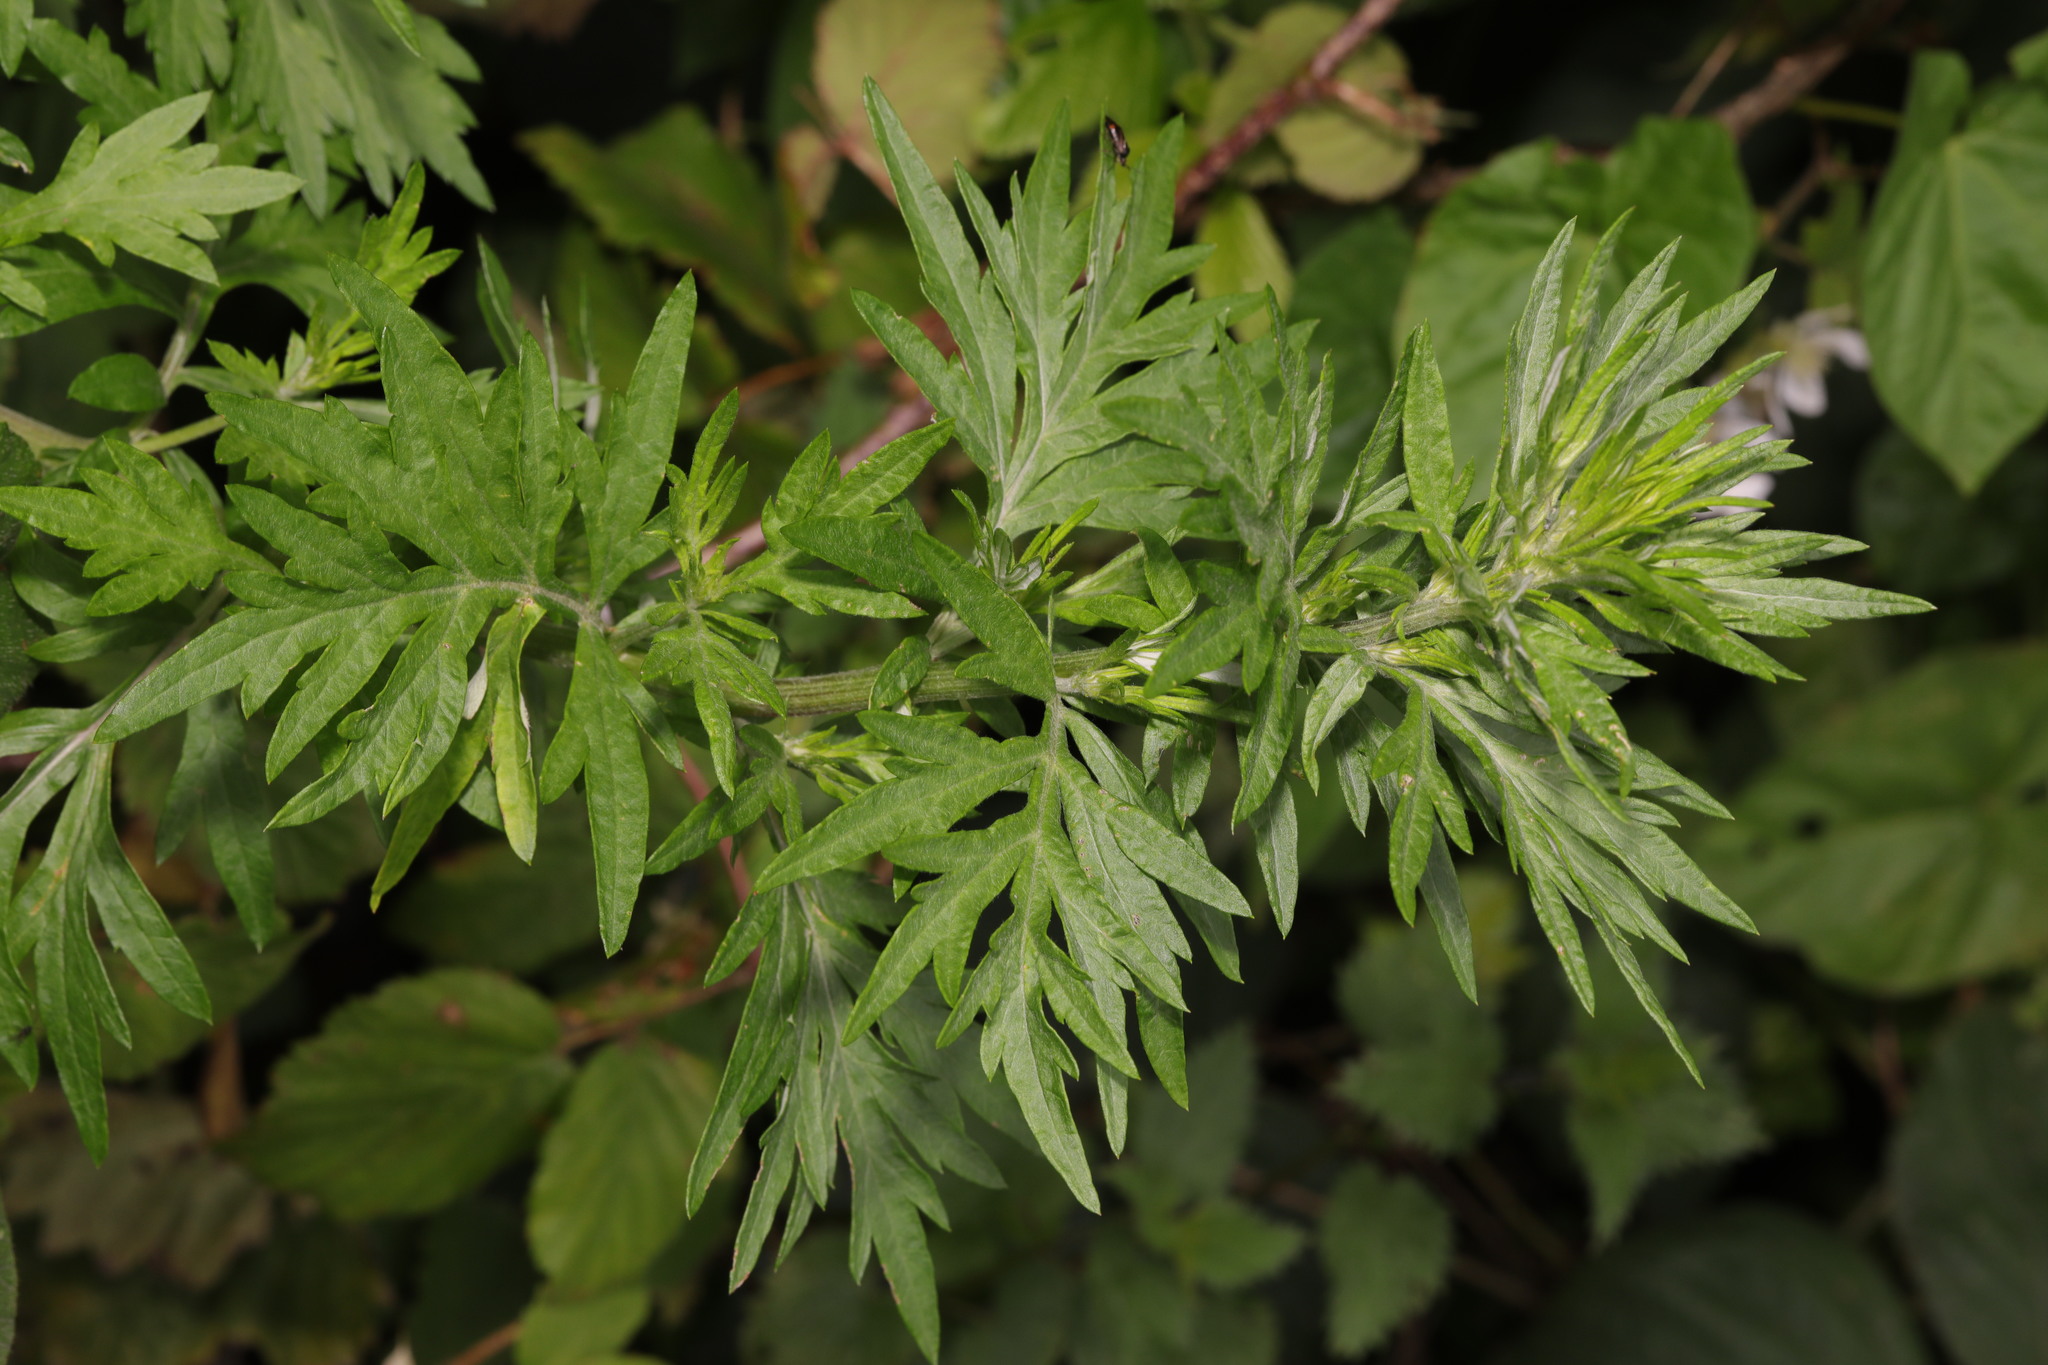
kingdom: Plantae
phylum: Tracheophyta
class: Magnoliopsida
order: Asterales
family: Asteraceae
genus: Artemisia
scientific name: Artemisia vulgaris
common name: Mugwort
